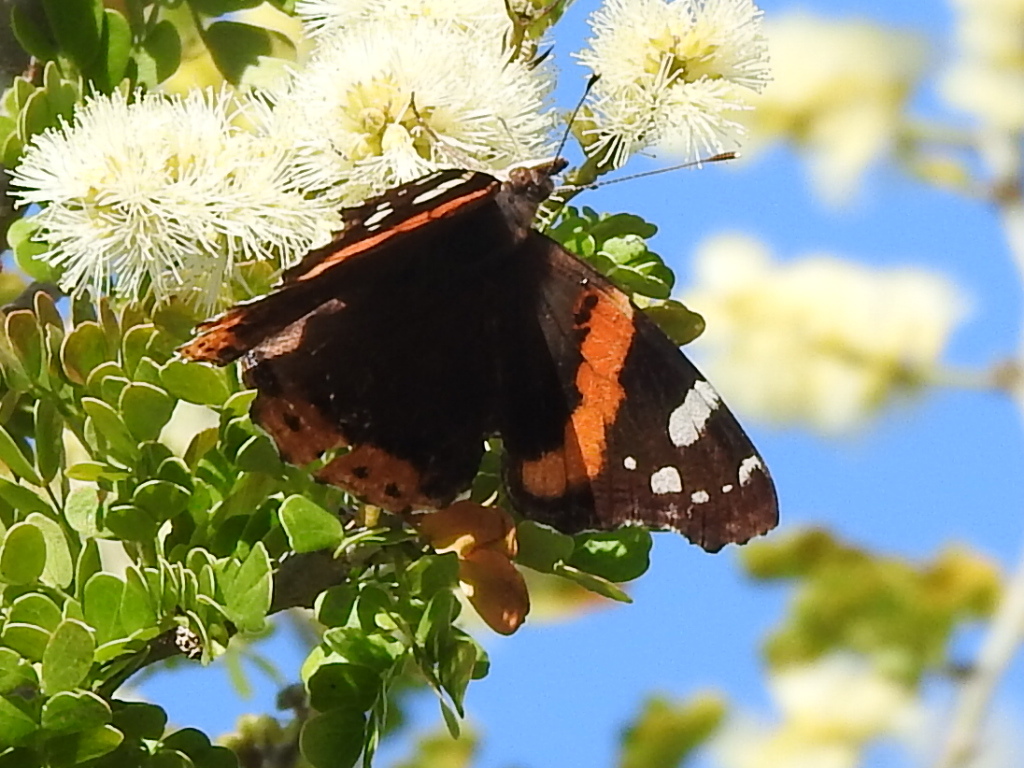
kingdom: Animalia
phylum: Arthropoda
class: Insecta
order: Lepidoptera
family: Nymphalidae
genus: Vanessa
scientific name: Vanessa atalanta
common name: Red admiral
